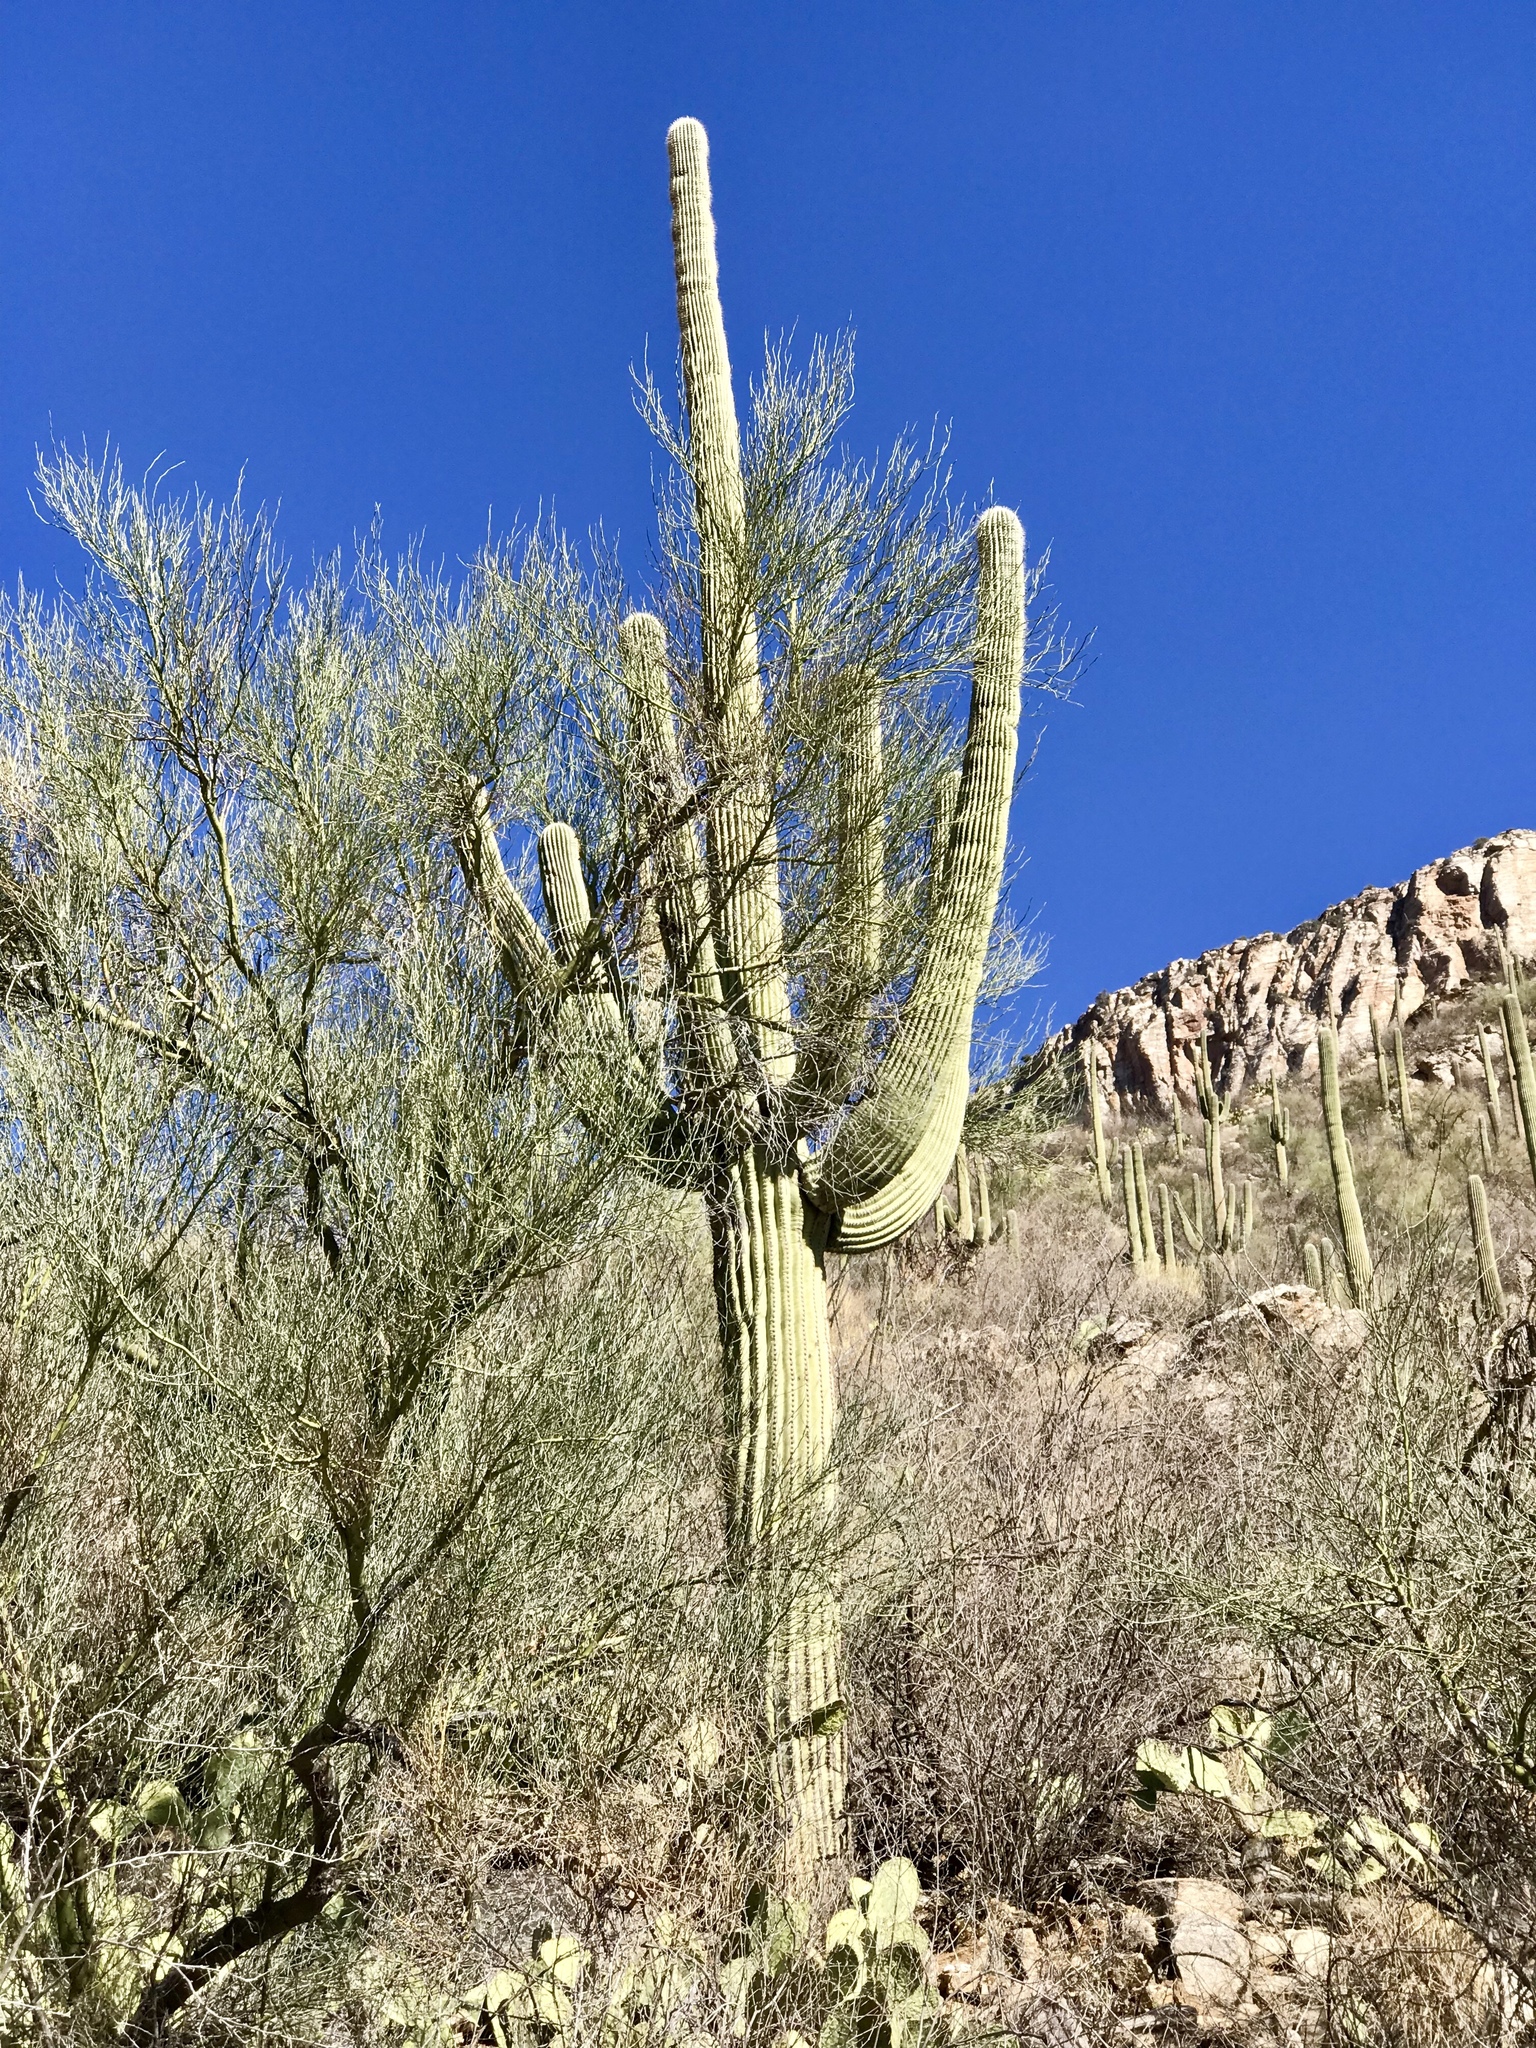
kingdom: Plantae
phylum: Tracheophyta
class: Magnoliopsida
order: Caryophyllales
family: Cactaceae
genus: Carnegiea
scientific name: Carnegiea gigantea
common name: Saguaro
